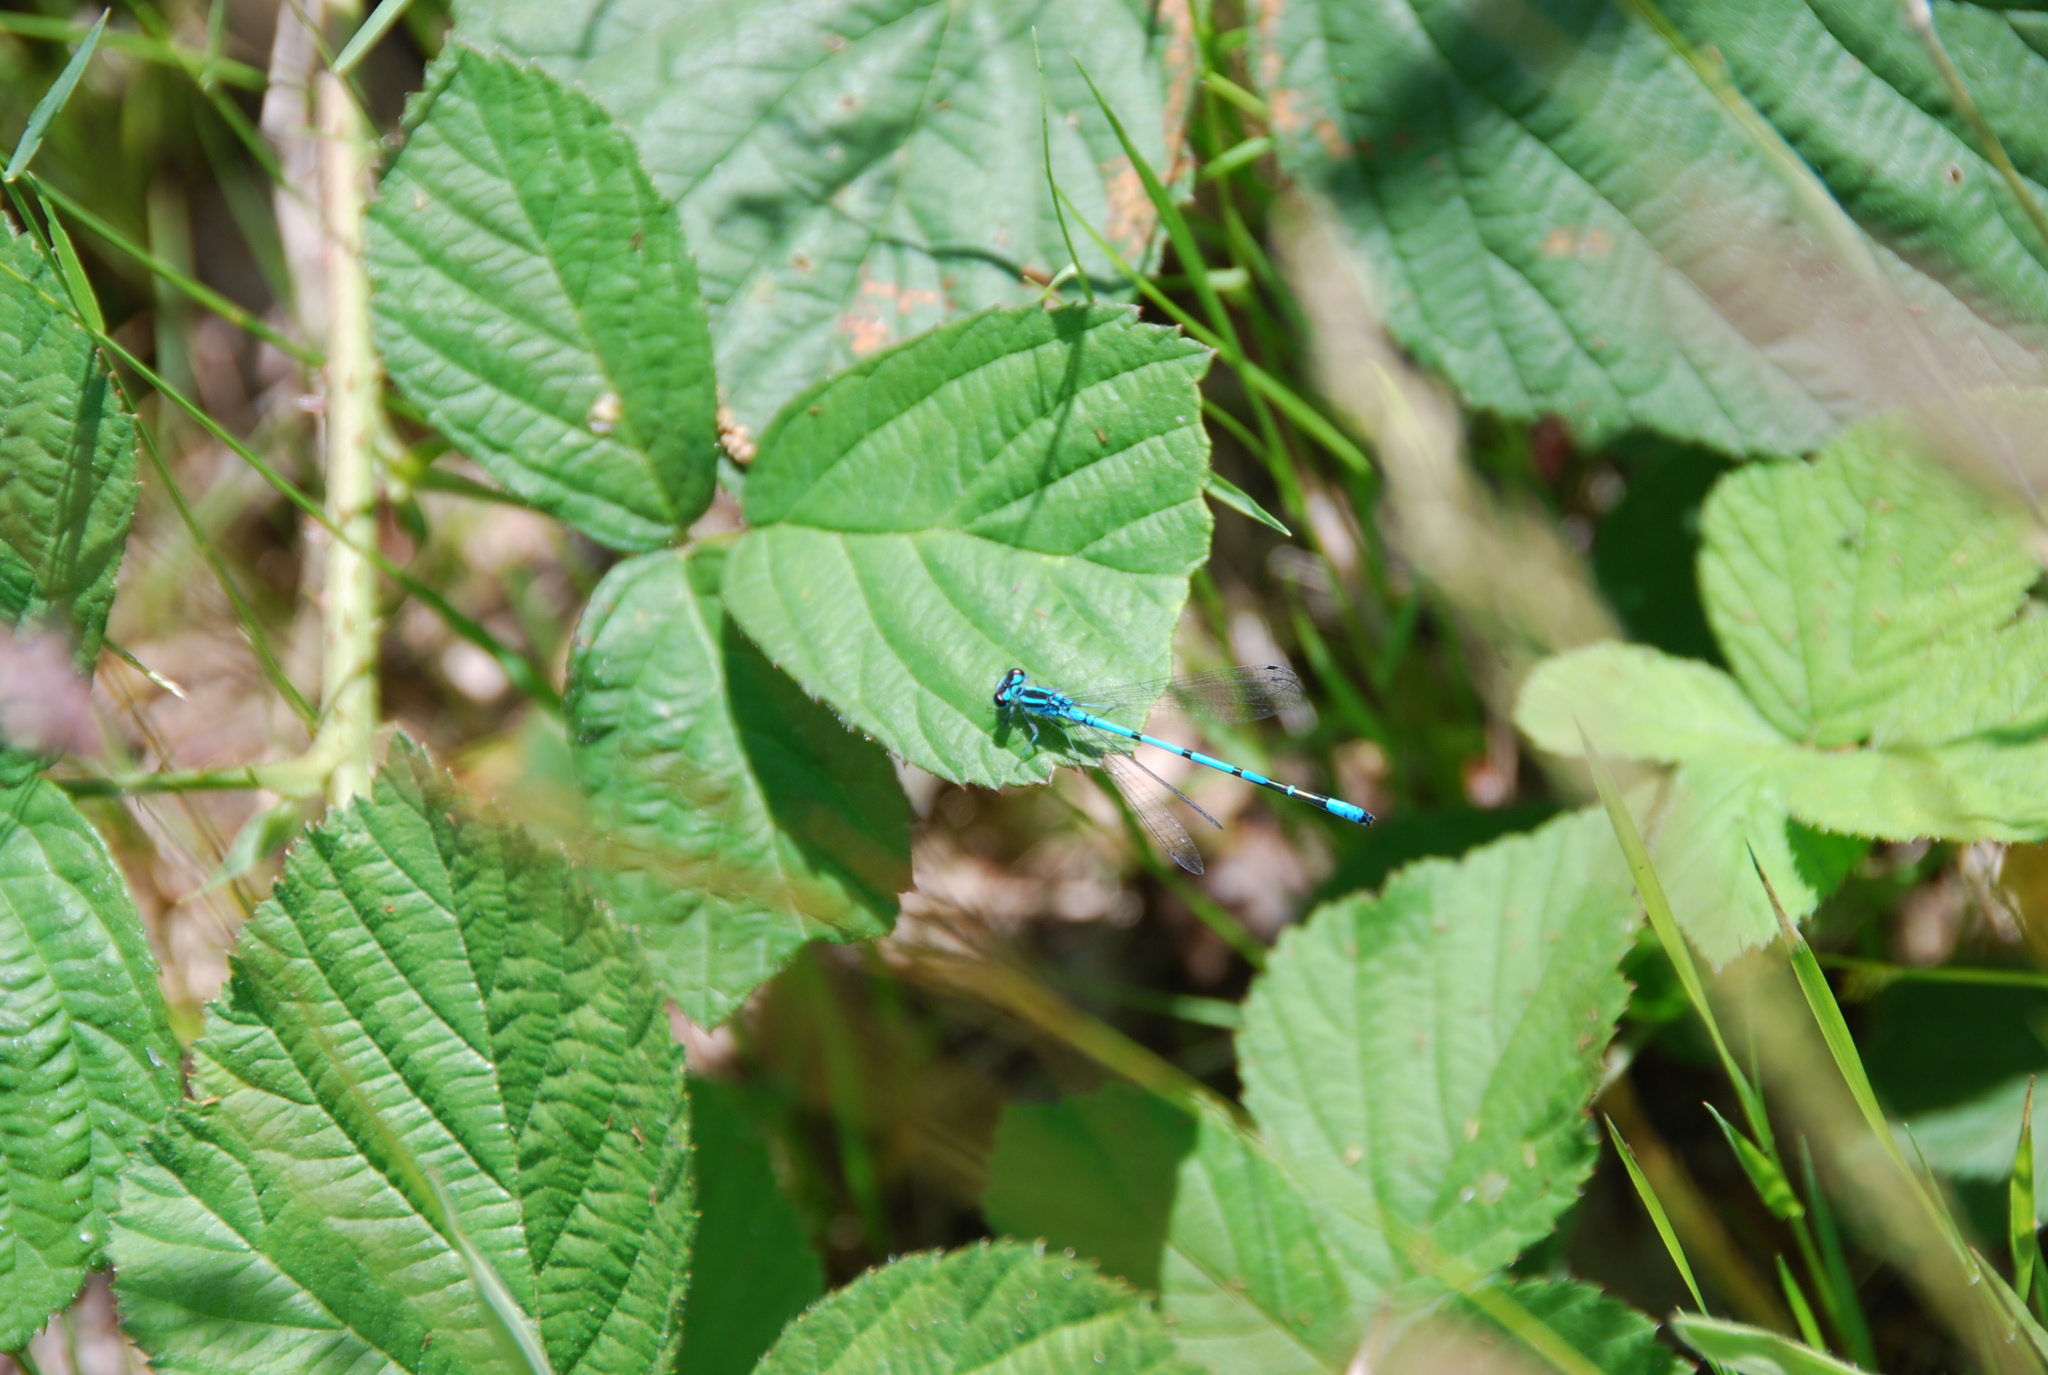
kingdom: Animalia
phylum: Arthropoda
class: Insecta
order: Odonata
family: Coenagrionidae
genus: Coenagrion
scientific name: Coenagrion puella
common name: Azure damselfly
